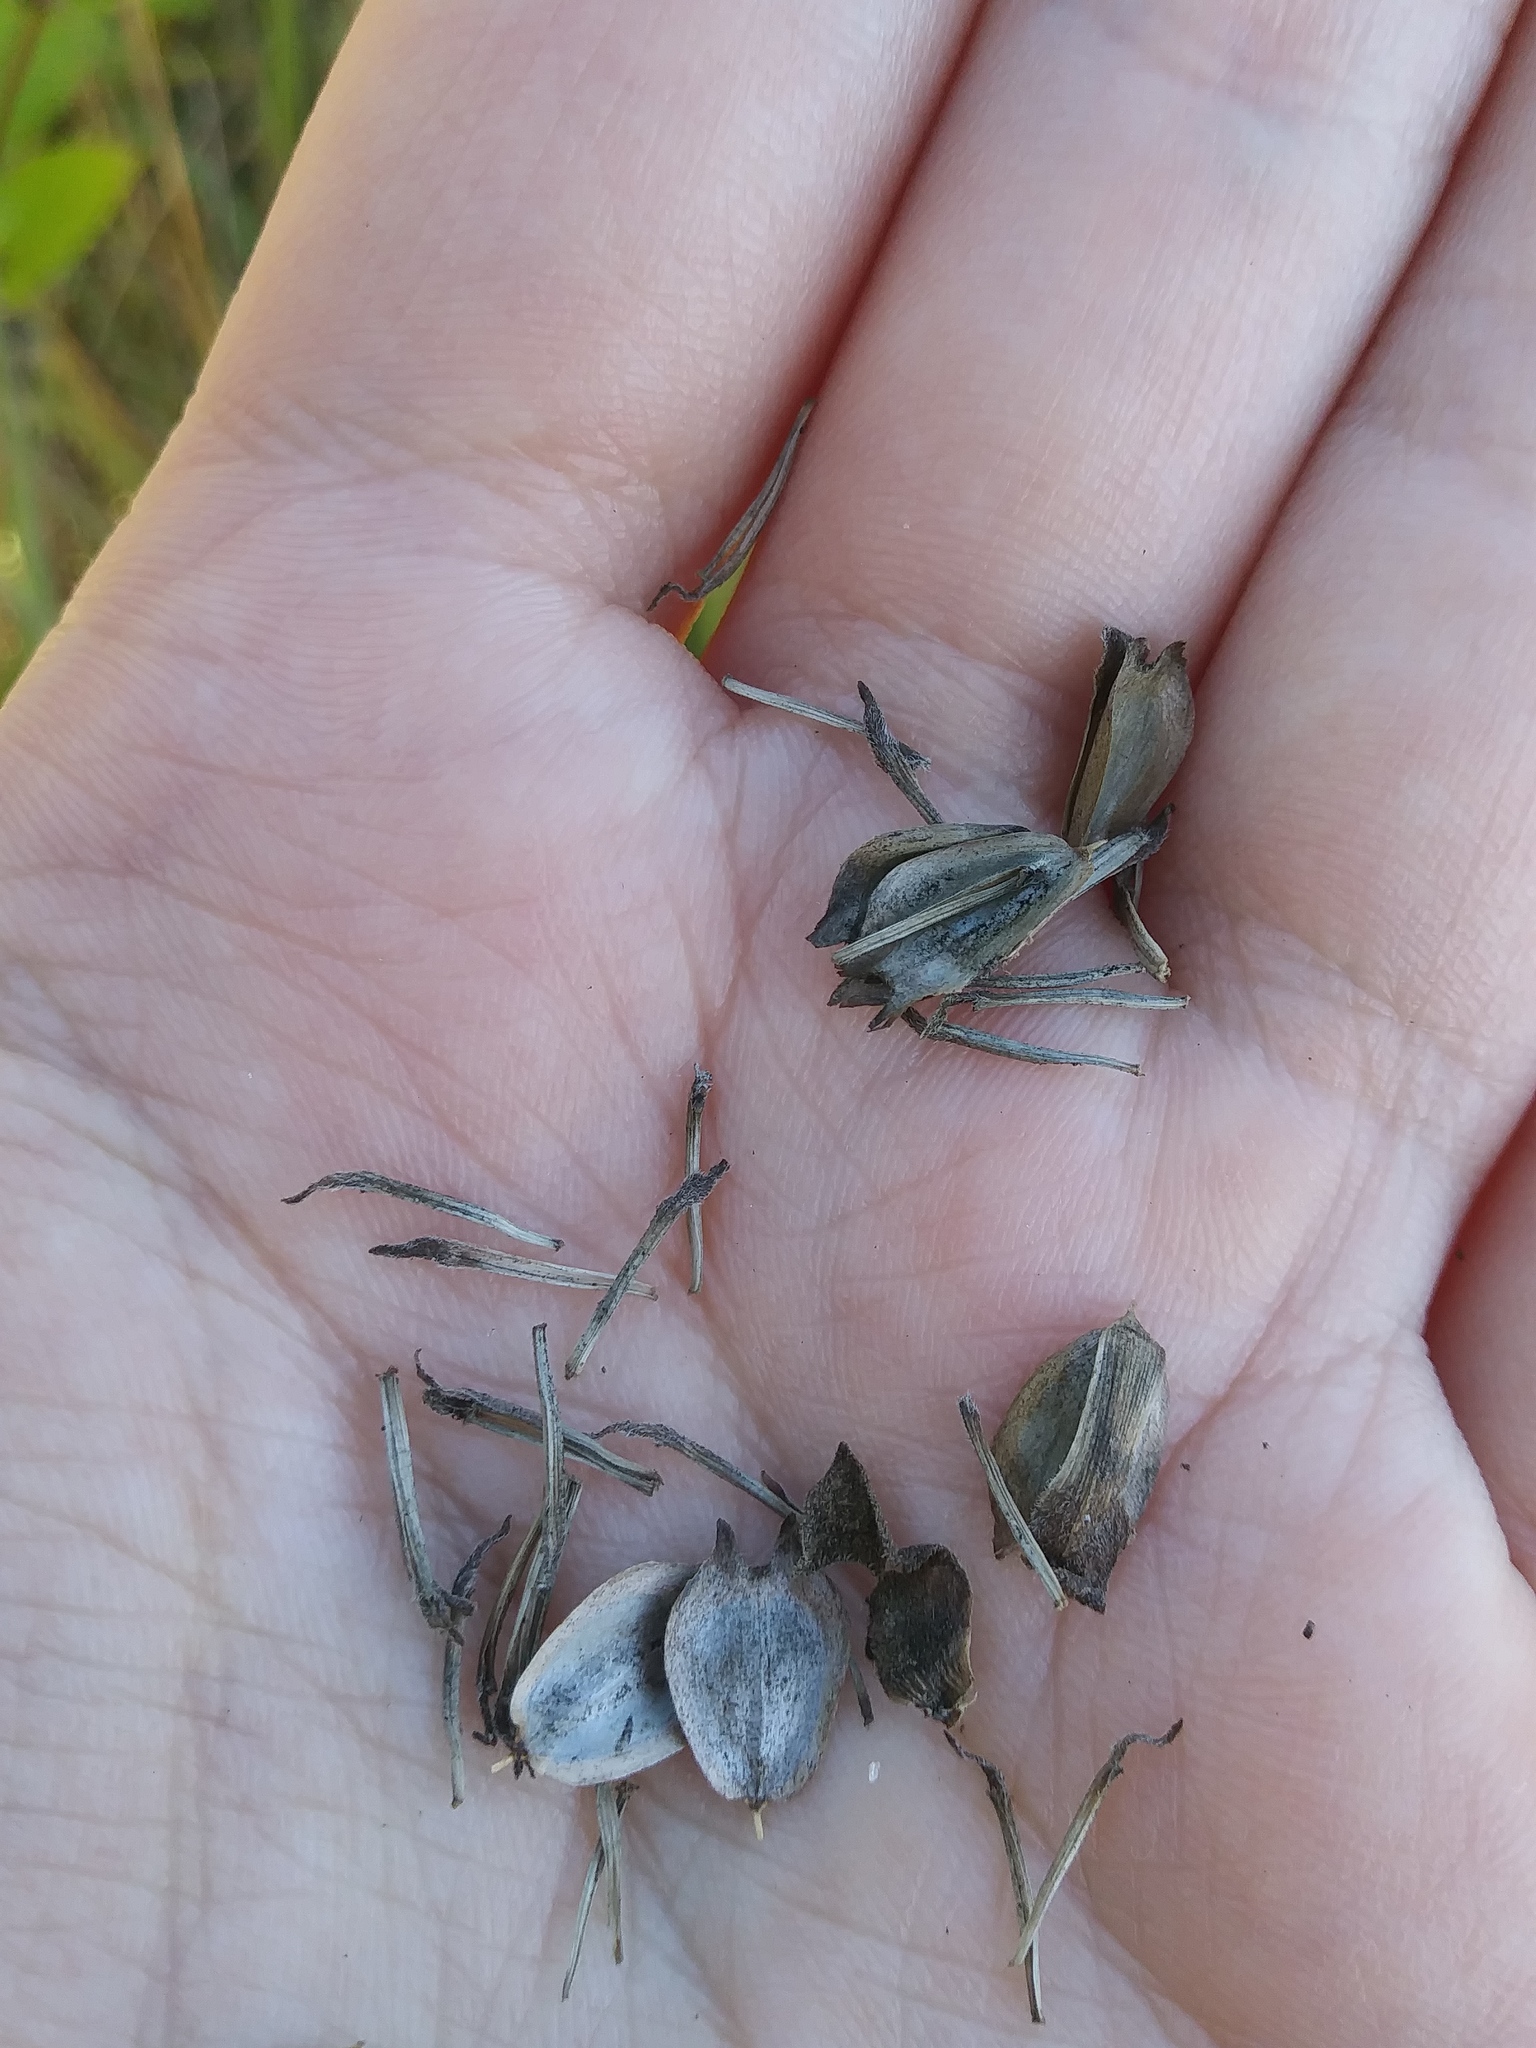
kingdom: Plantae
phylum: Tracheophyta
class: Magnoliopsida
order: Asterales
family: Asteraceae
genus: Silphium
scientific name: Silphium integrifolium
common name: Whole-leaf rosinweed
